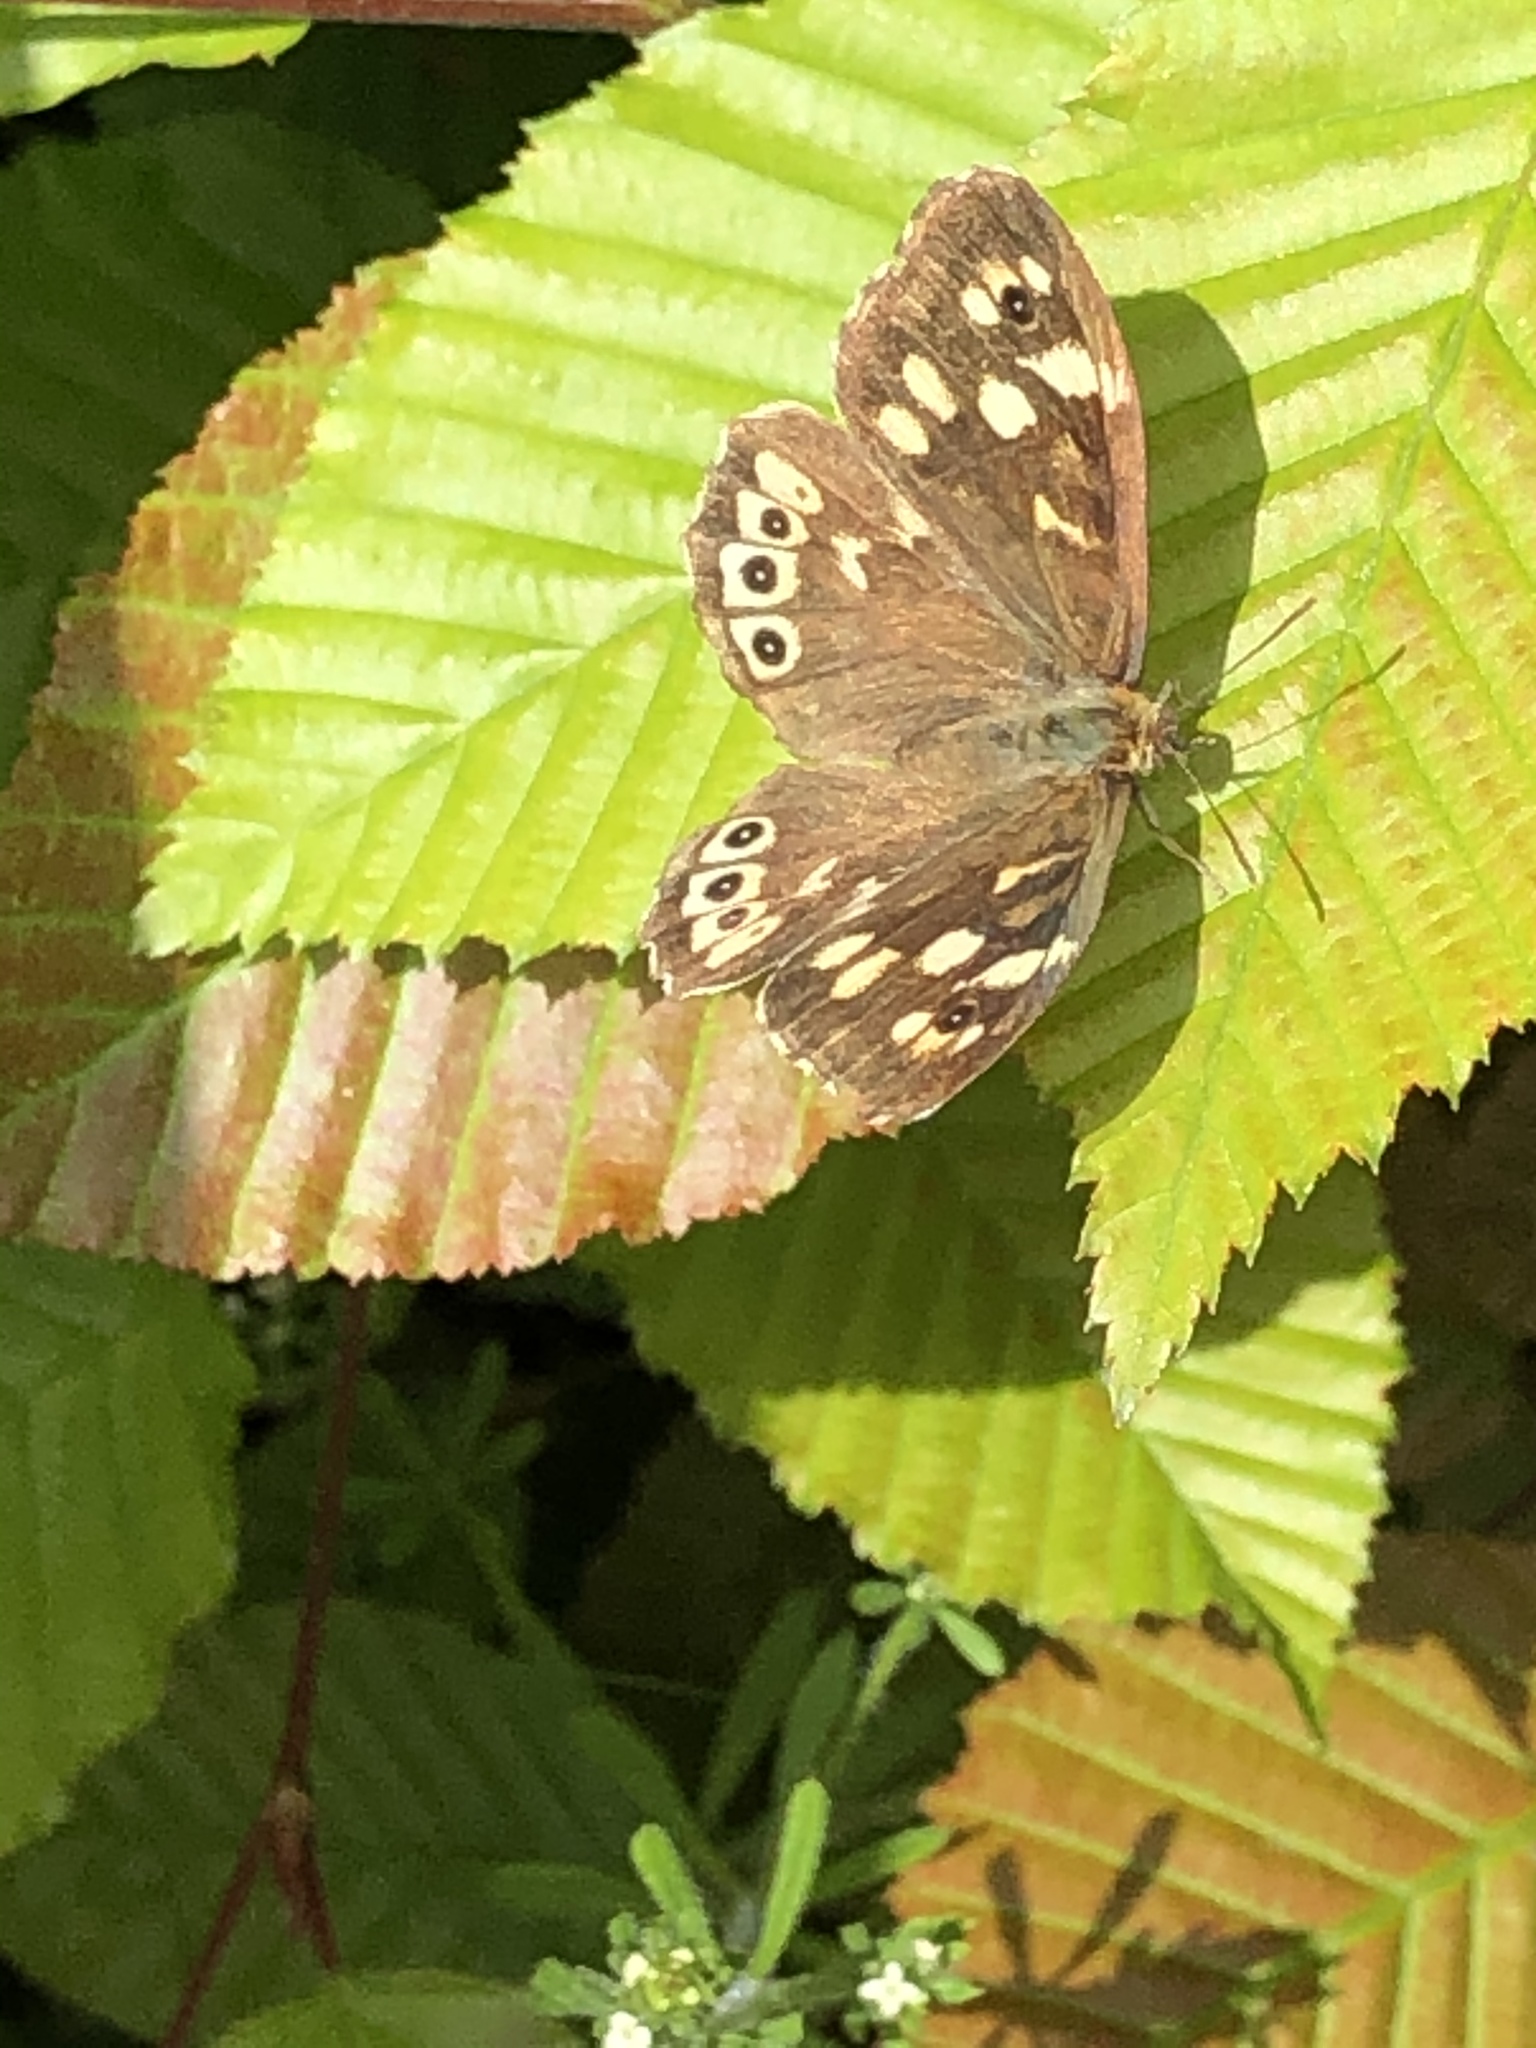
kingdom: Animalia
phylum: Arthropoda
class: Insecta
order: Lepidoptera
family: Nymphalidae
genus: Pararge
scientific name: Pararge aegeria
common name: Speckled wood
